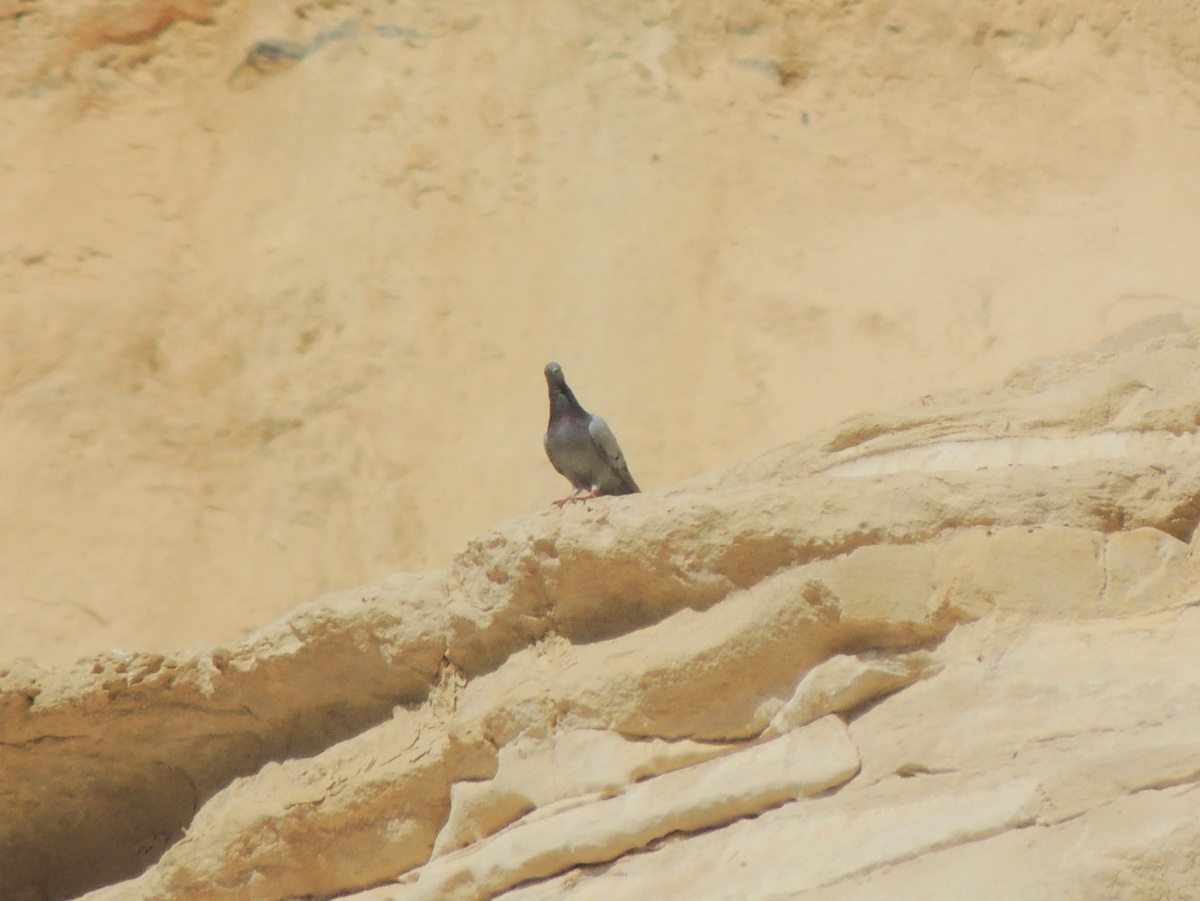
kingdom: Animalia
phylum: Chordata
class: Aves
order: Columbiformes
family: Columbidae
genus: Columba
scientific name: Columba livia
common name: Rock pigeon
